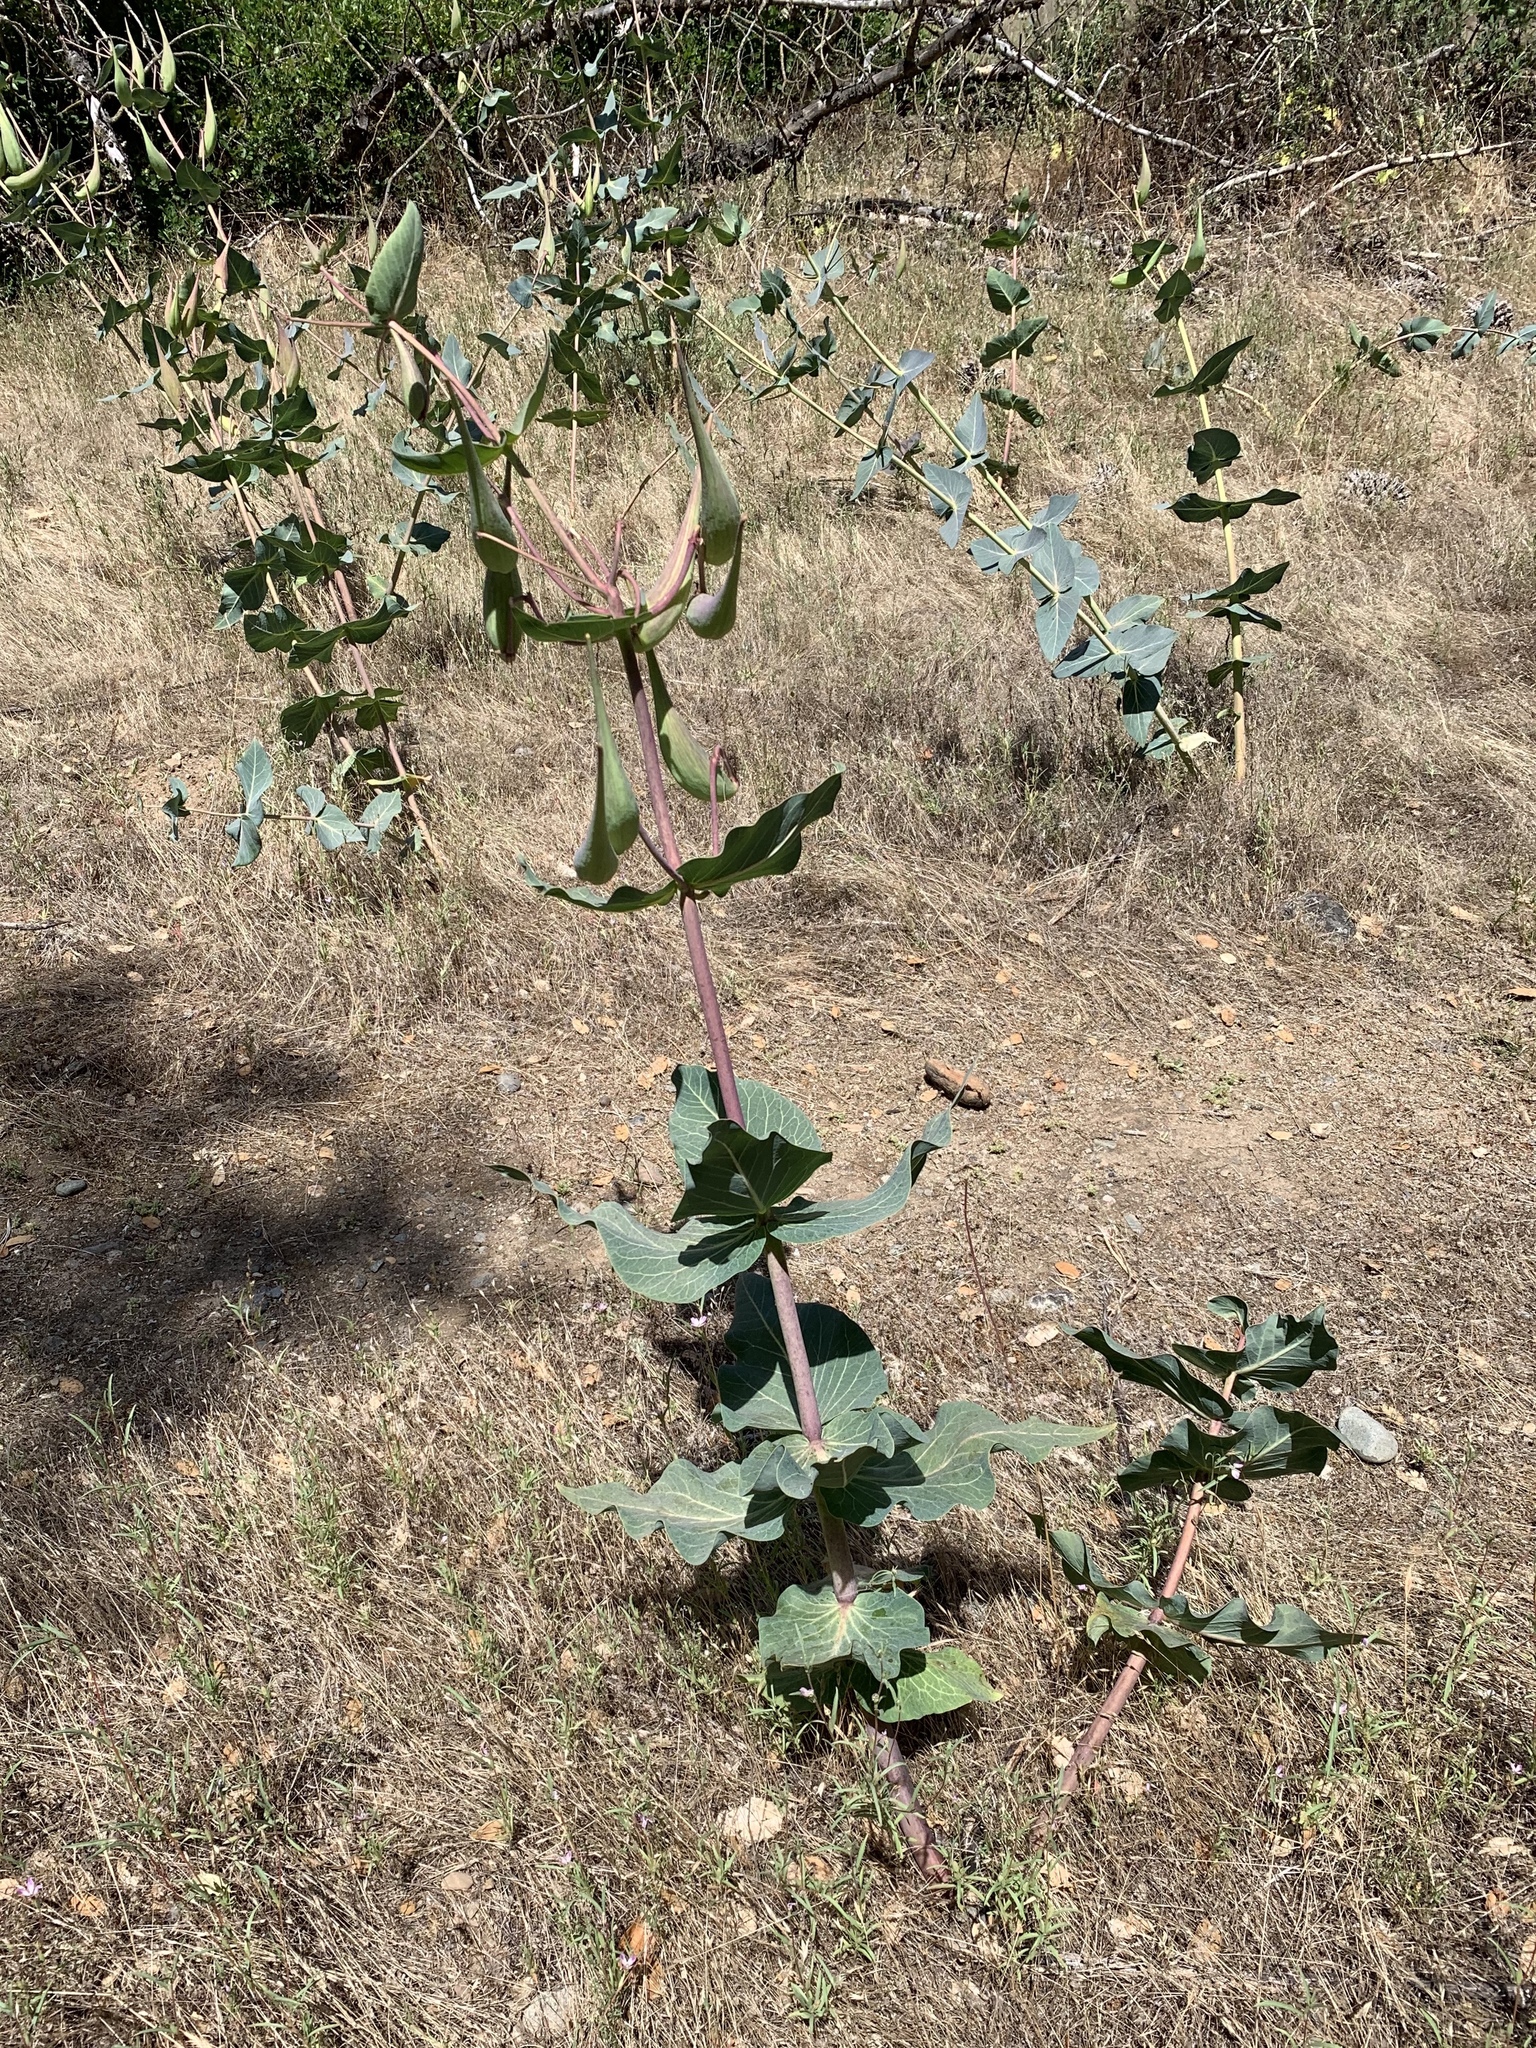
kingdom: Plantae
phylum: Tracheophyta
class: Magnoliopsida
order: Gentianales
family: Apocynaceae
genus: Asclepias
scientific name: Asclepias cordifolia
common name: Purple milkweed
